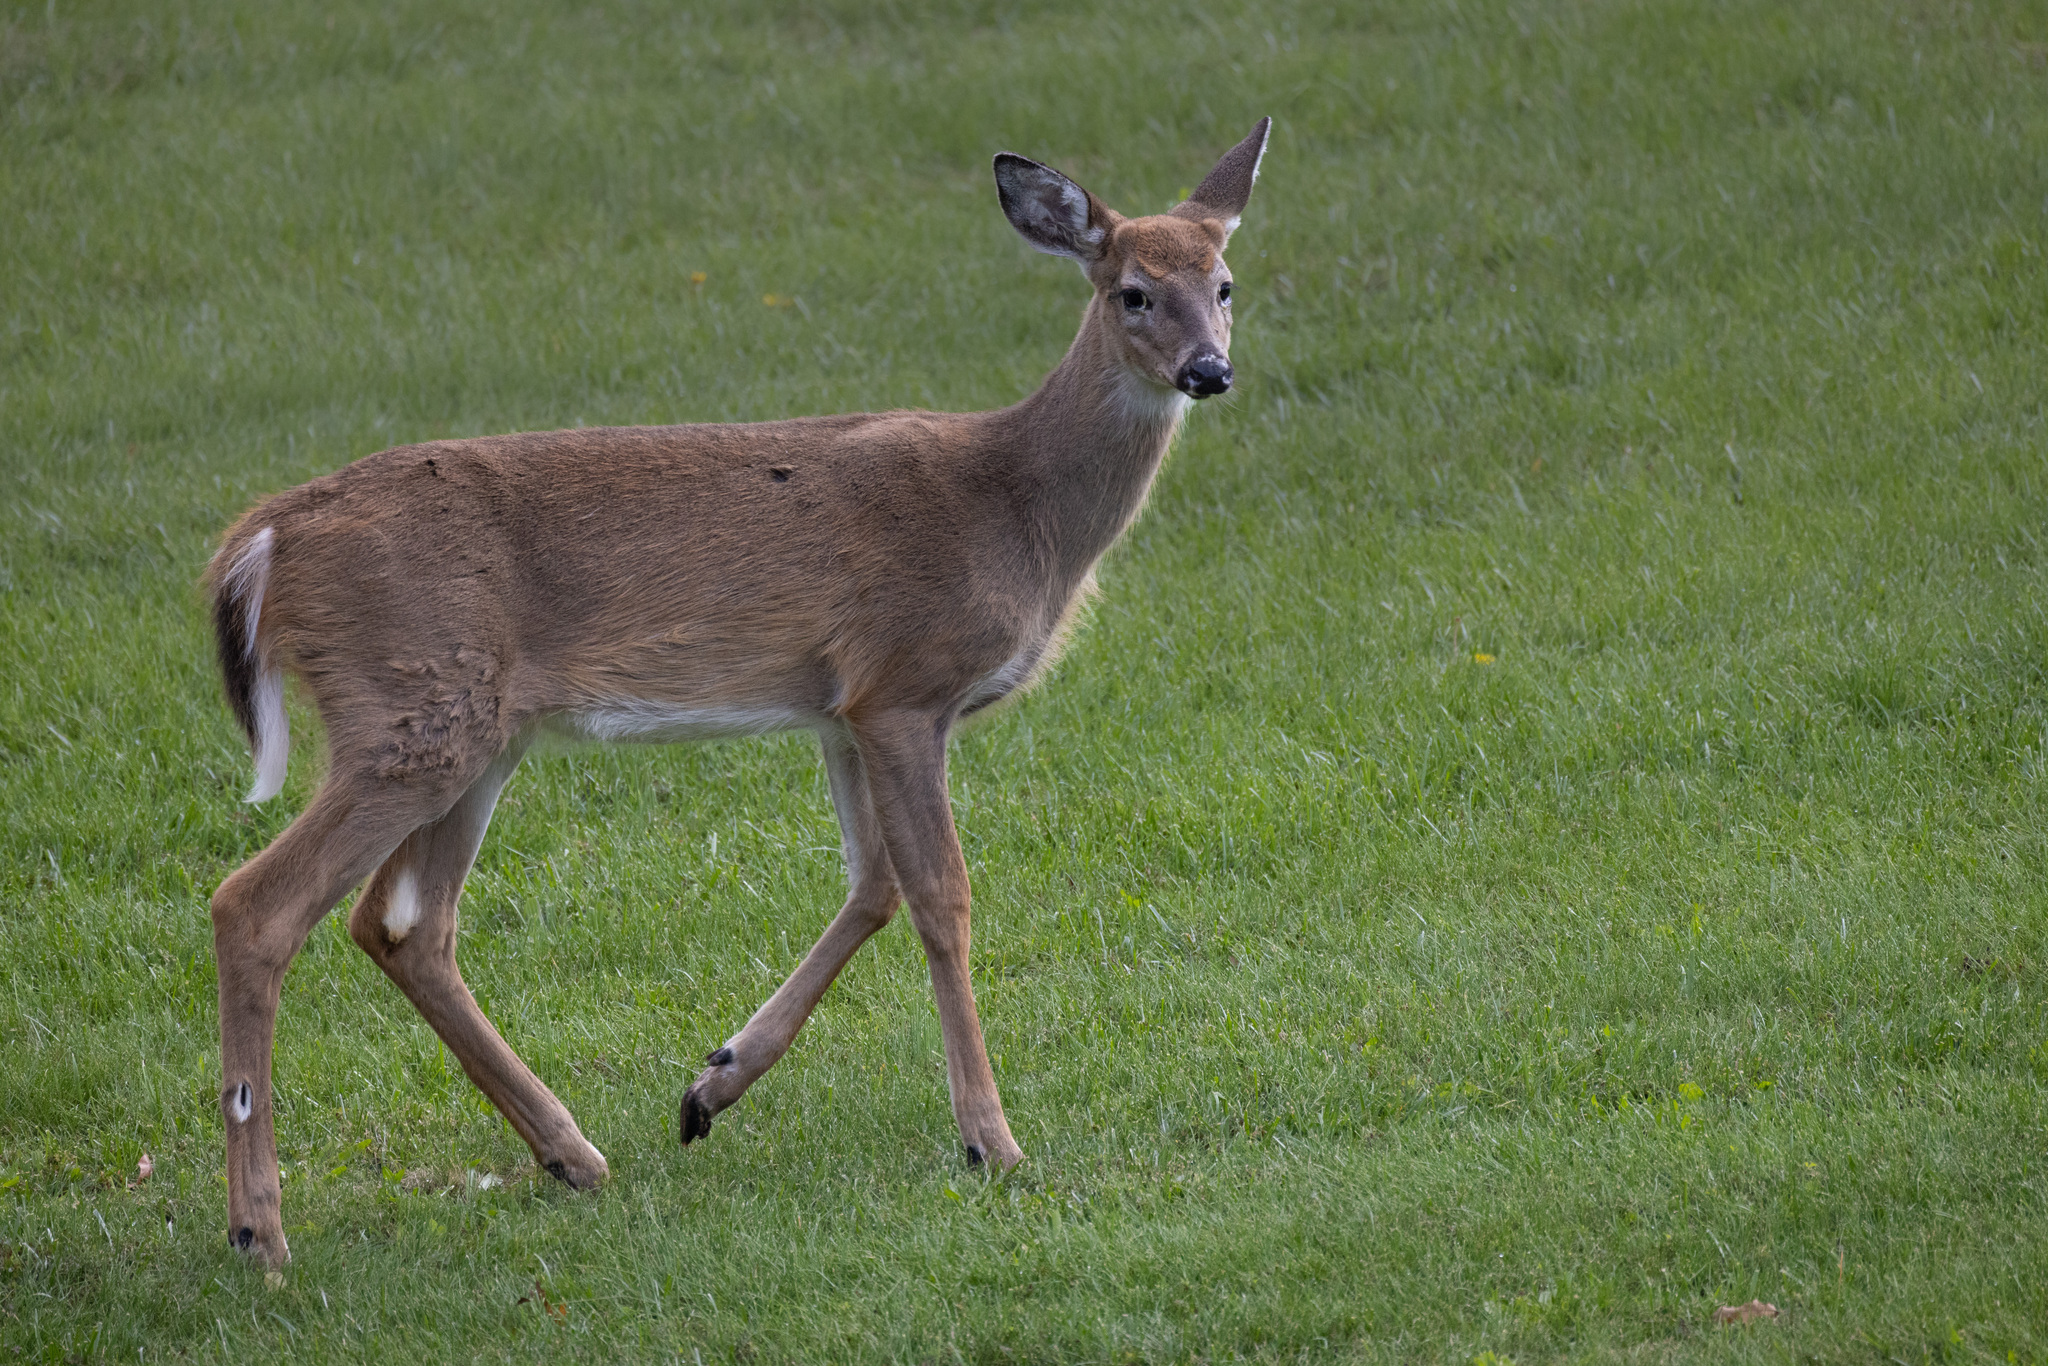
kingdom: Animalia
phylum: Chordata
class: Mammalia
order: Artiodactyla
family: Cervidae
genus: Odocoileus
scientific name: Odocoileus virginianus
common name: White-tailed deer
